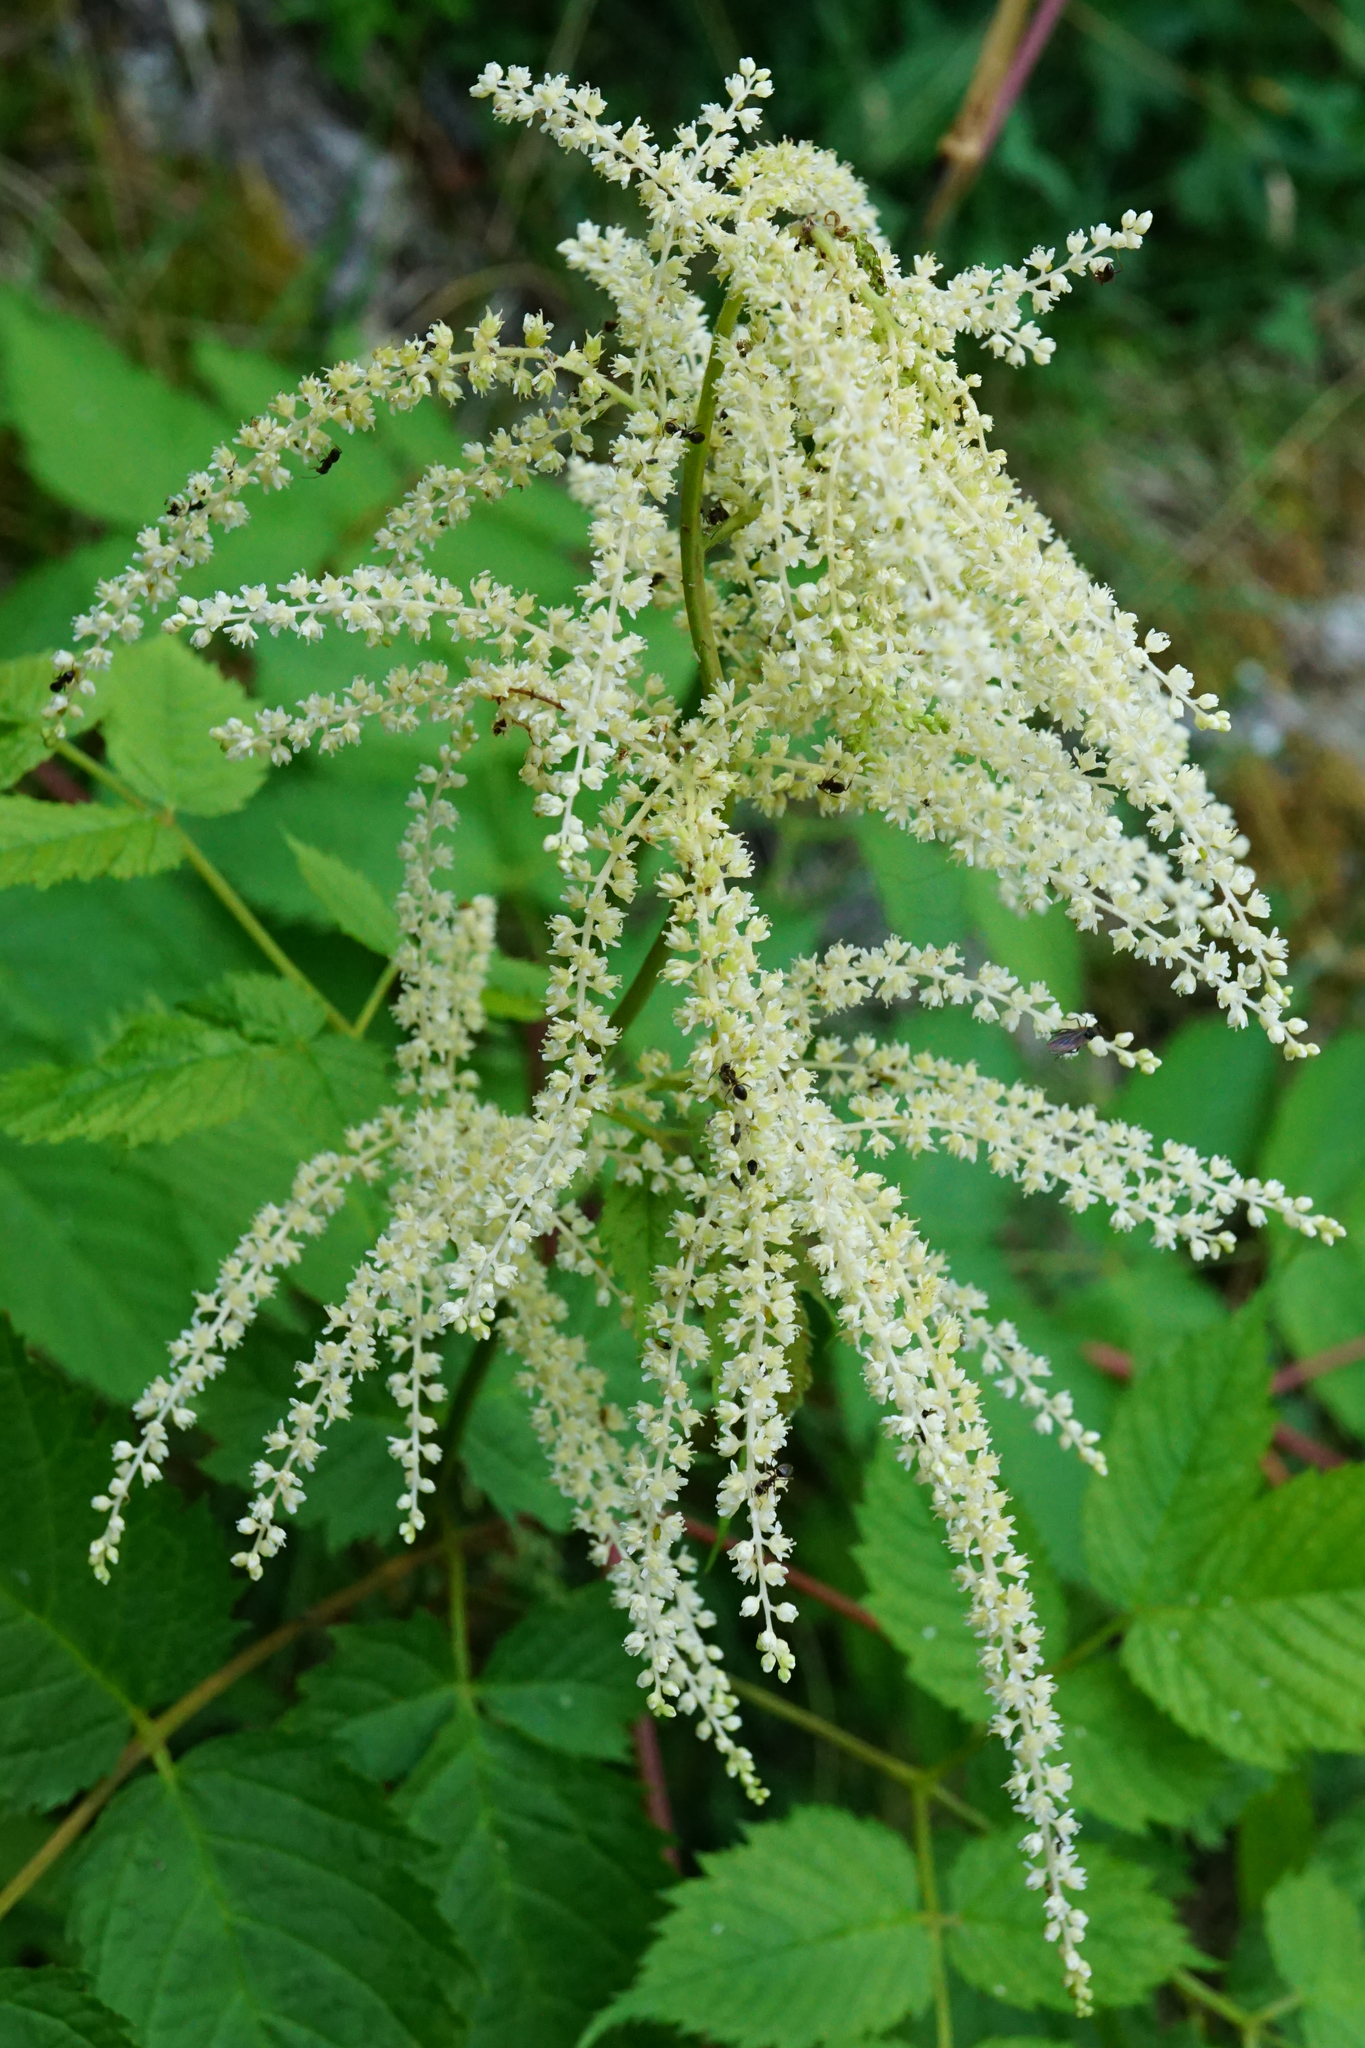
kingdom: Plantae
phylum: Tracheophyta
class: Magnoliopsida
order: Rosales
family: Rosaceae
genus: Aruncus
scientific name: Aruncus dioicus
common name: Buck's-beard
